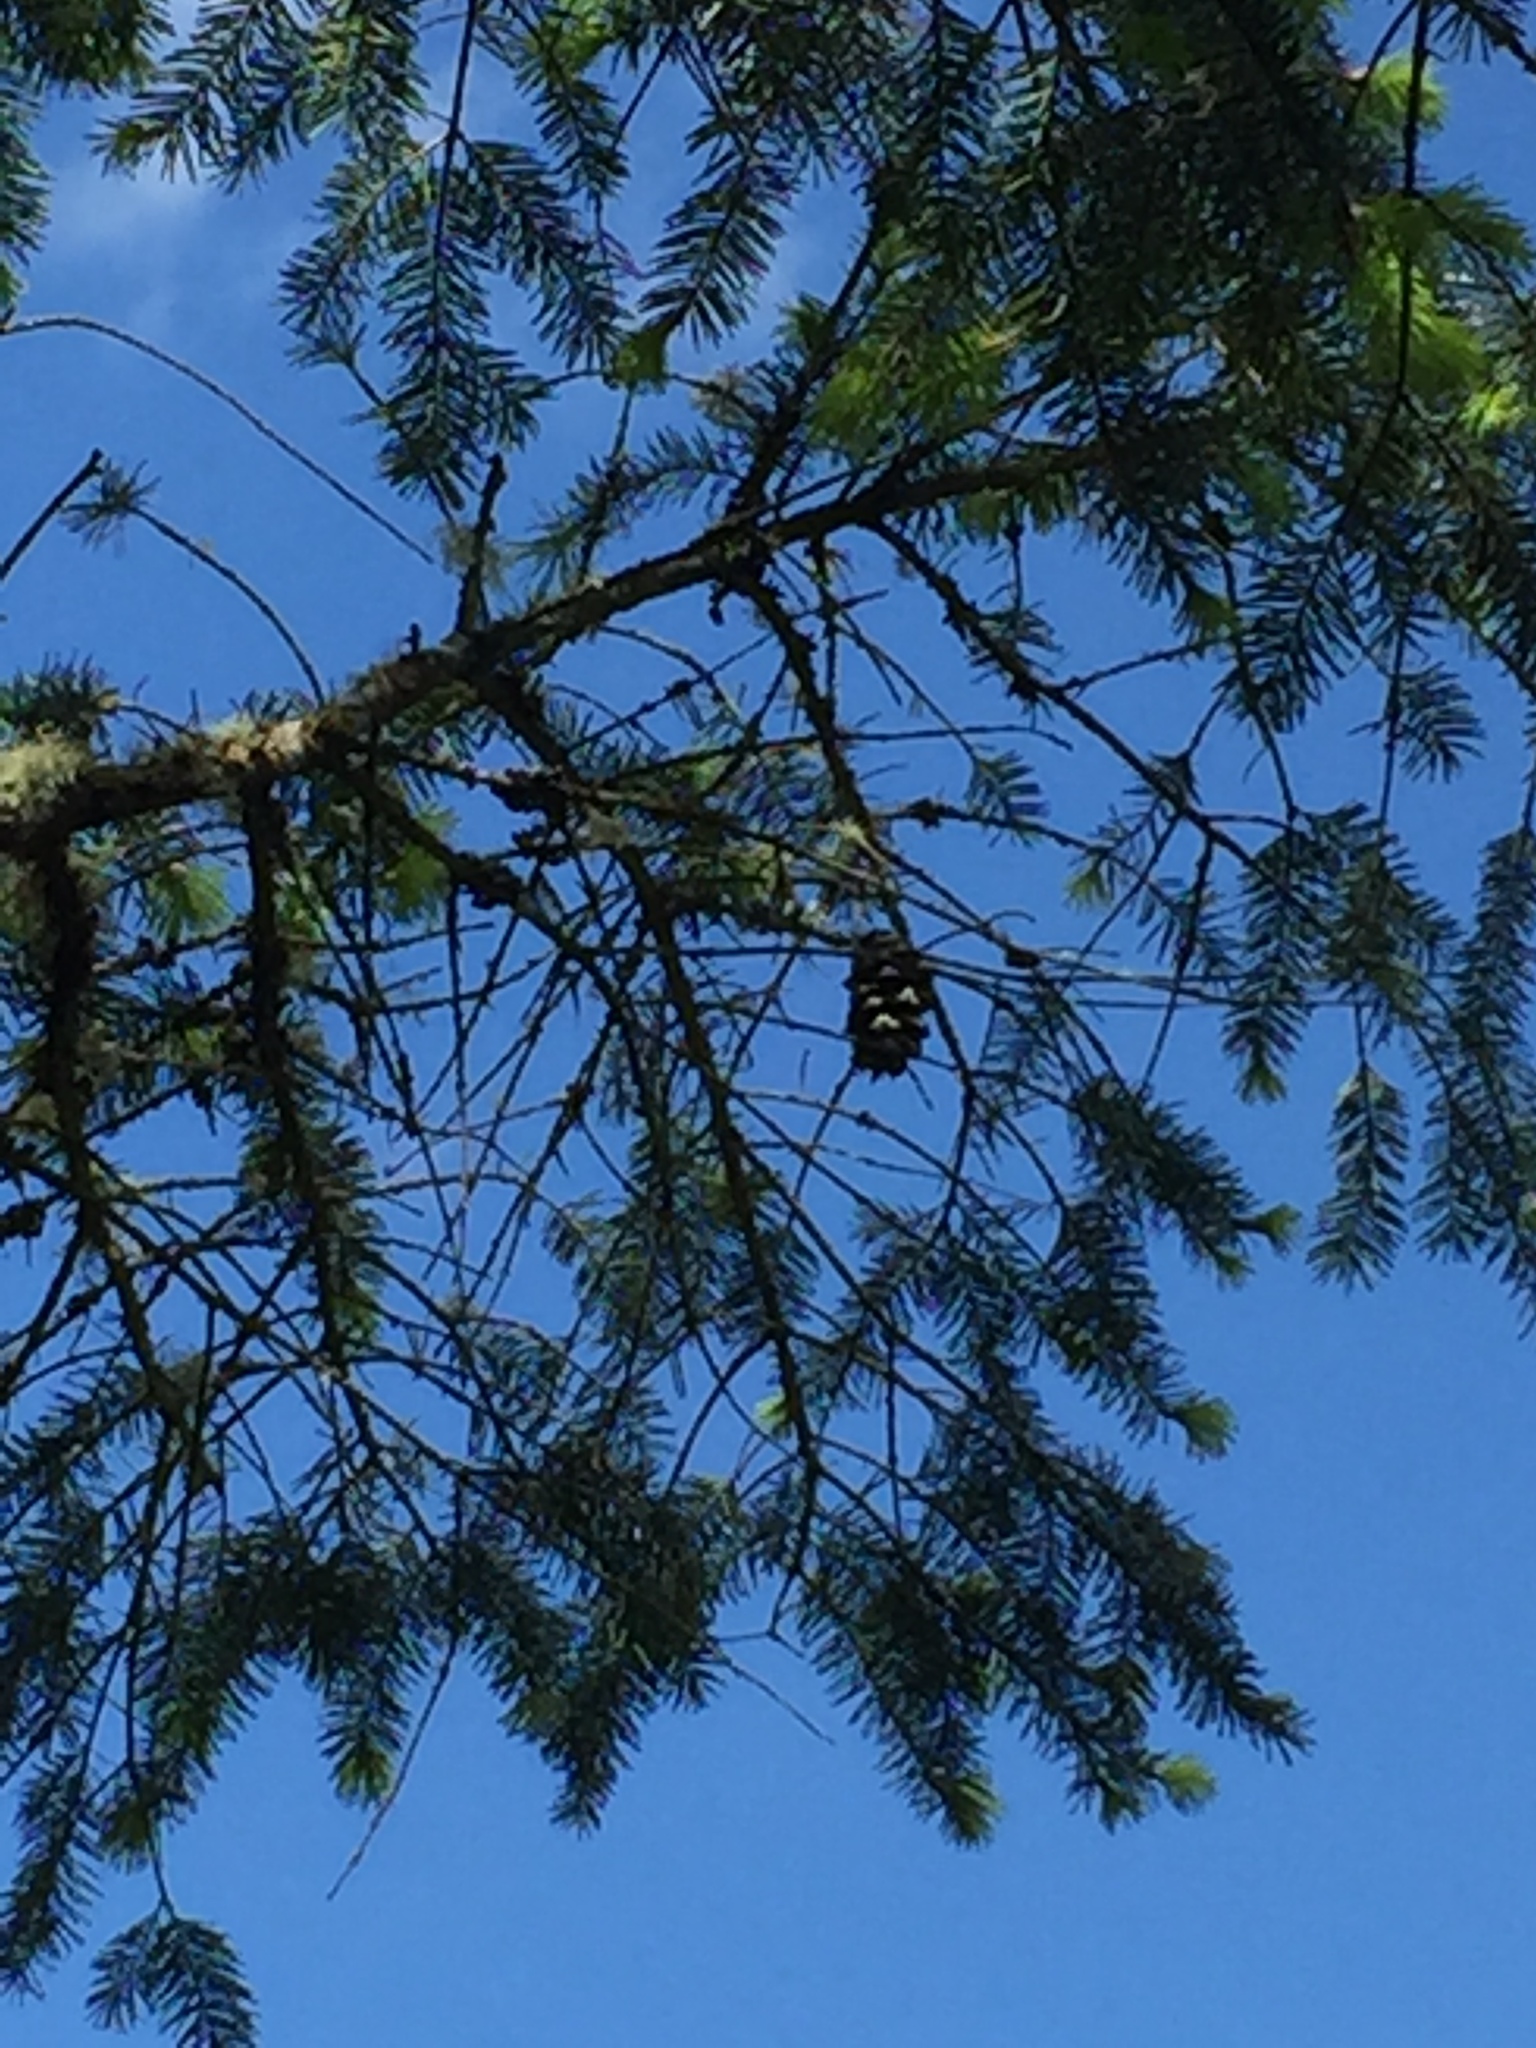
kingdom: Plantae
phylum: Tracheophyta
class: Pinopsida
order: Pinales
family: Pinaceae
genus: Pseudotsuga
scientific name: Pseudotsuga menziesii
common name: Douglas fir
